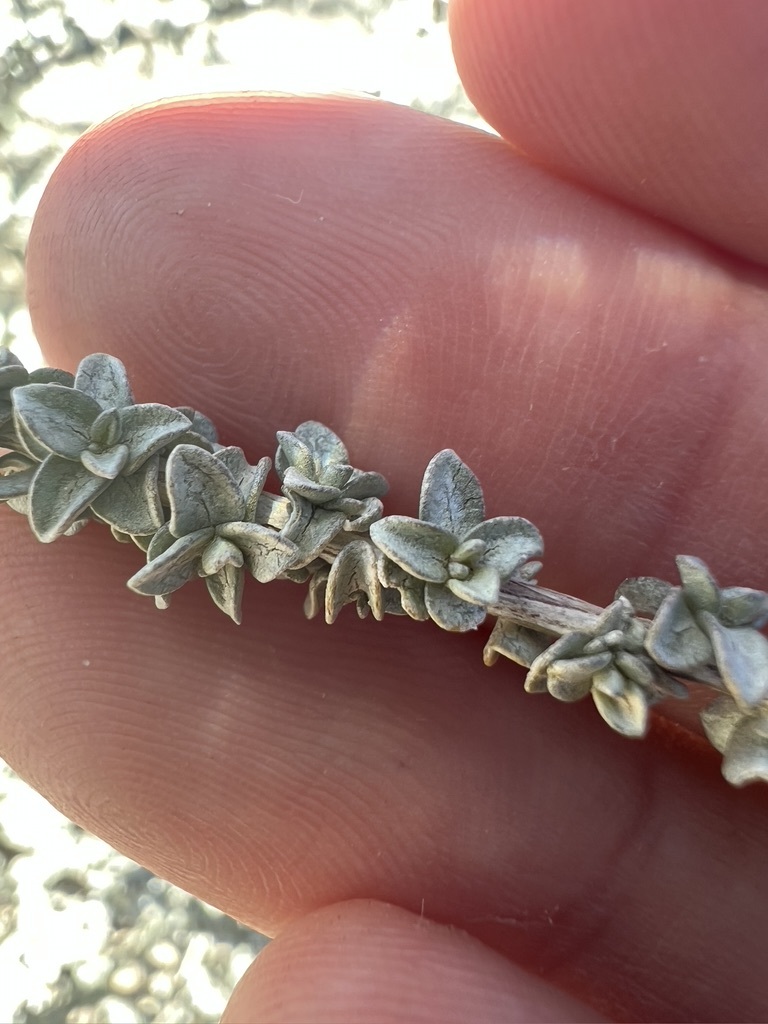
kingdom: Plantae
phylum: Tracheophyta
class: Magnoliopsida
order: Caryophyllales
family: Amaranthaceae
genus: Atriplex
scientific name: Atriplex polycarpa
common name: Desert saltbush
